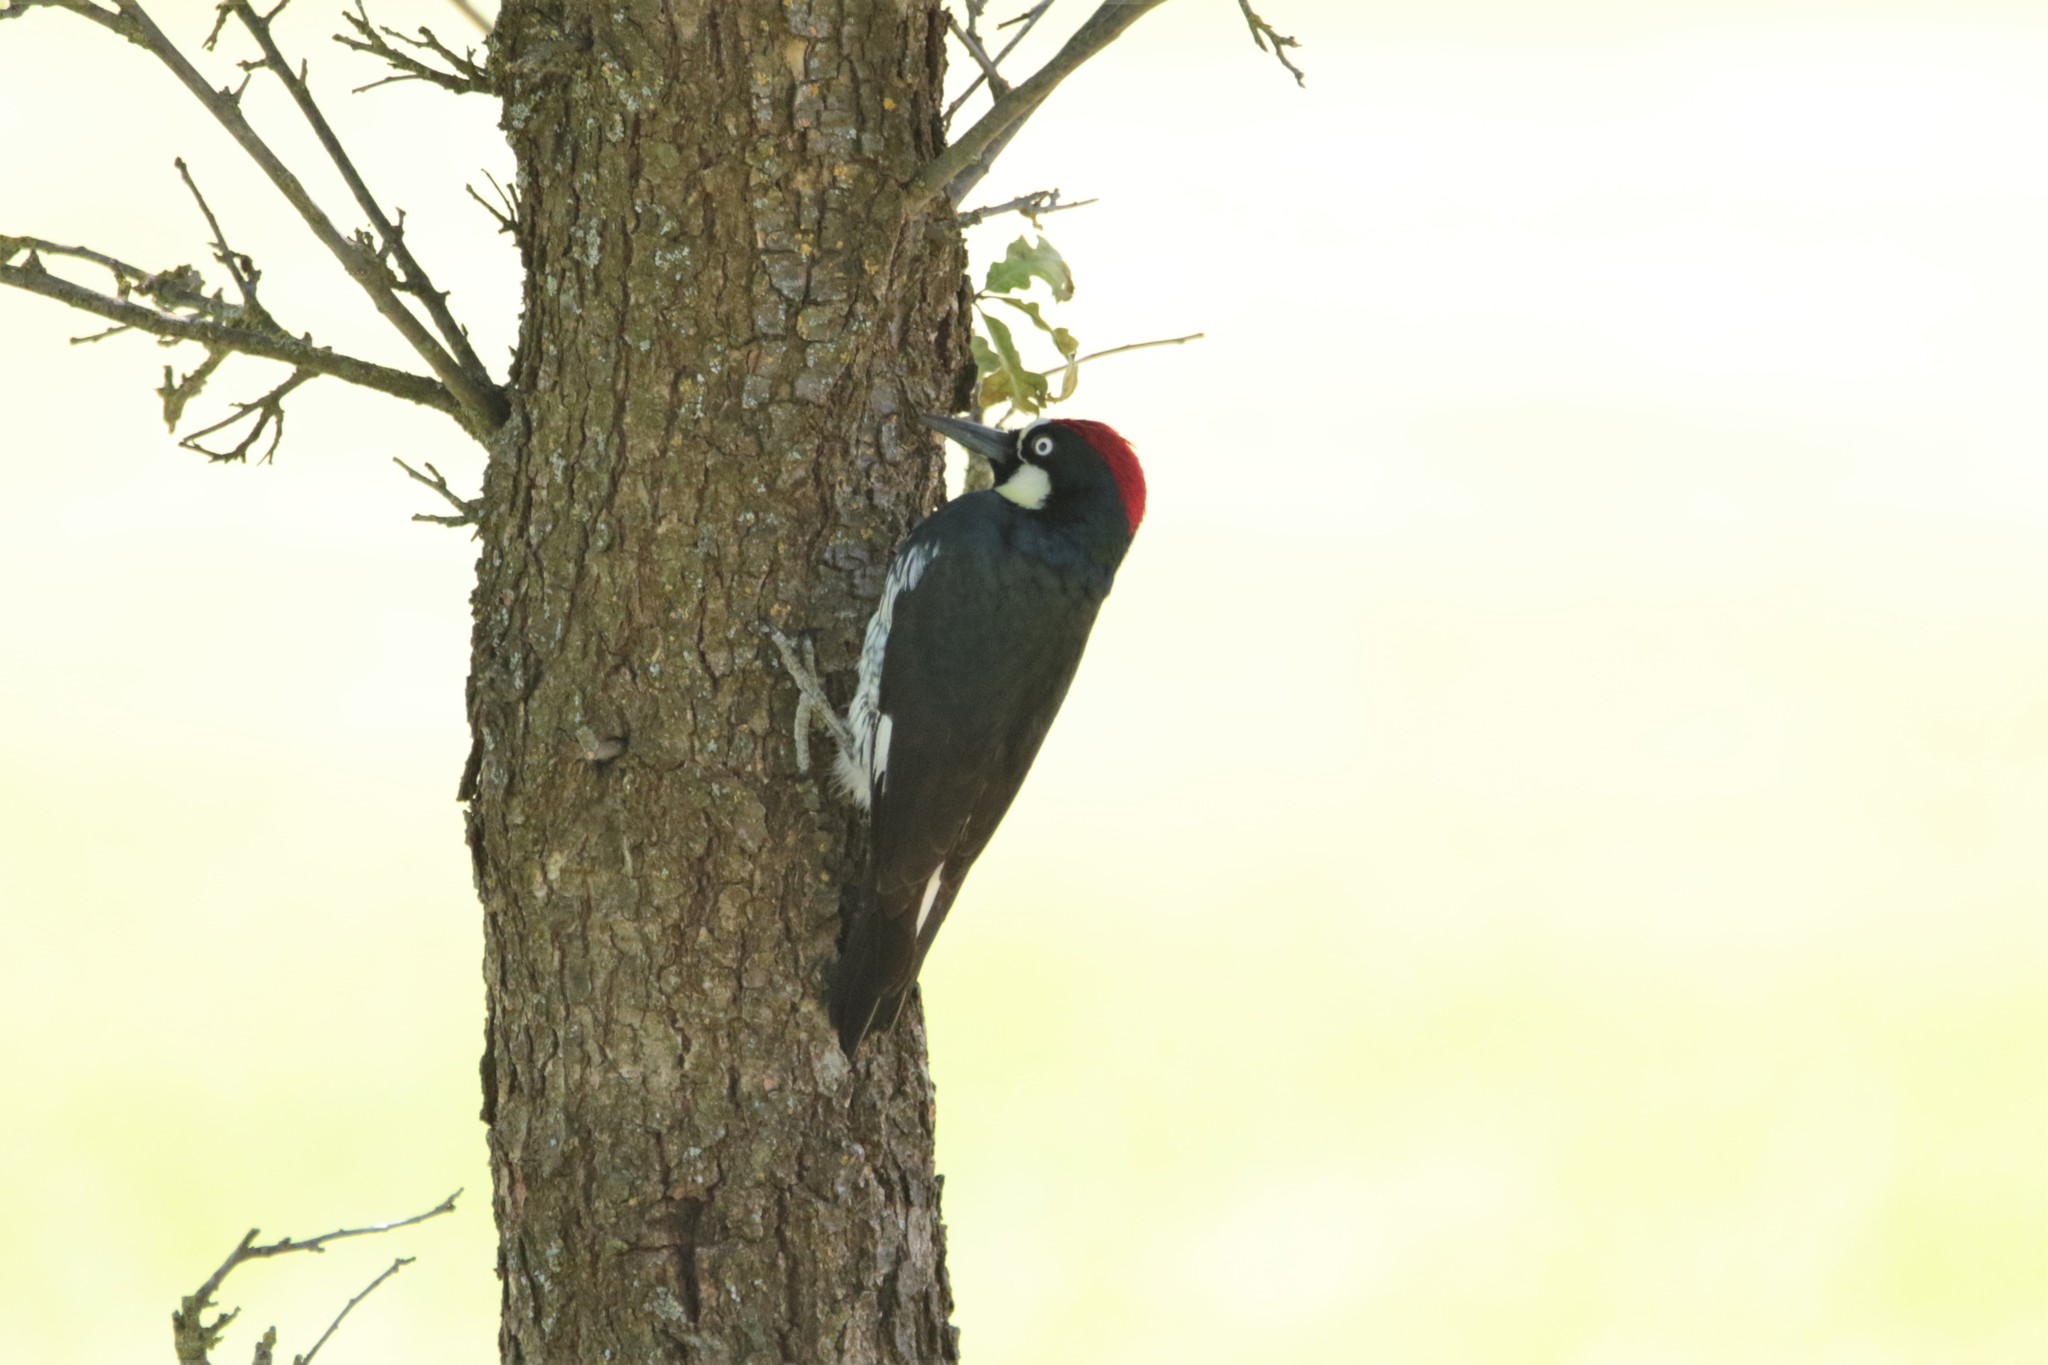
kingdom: Animalia
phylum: Chordata
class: Aves
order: Piciformes
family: Picidae
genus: Melanerpes
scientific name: Melanerpes formicivorus
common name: Acorn woodpecker
